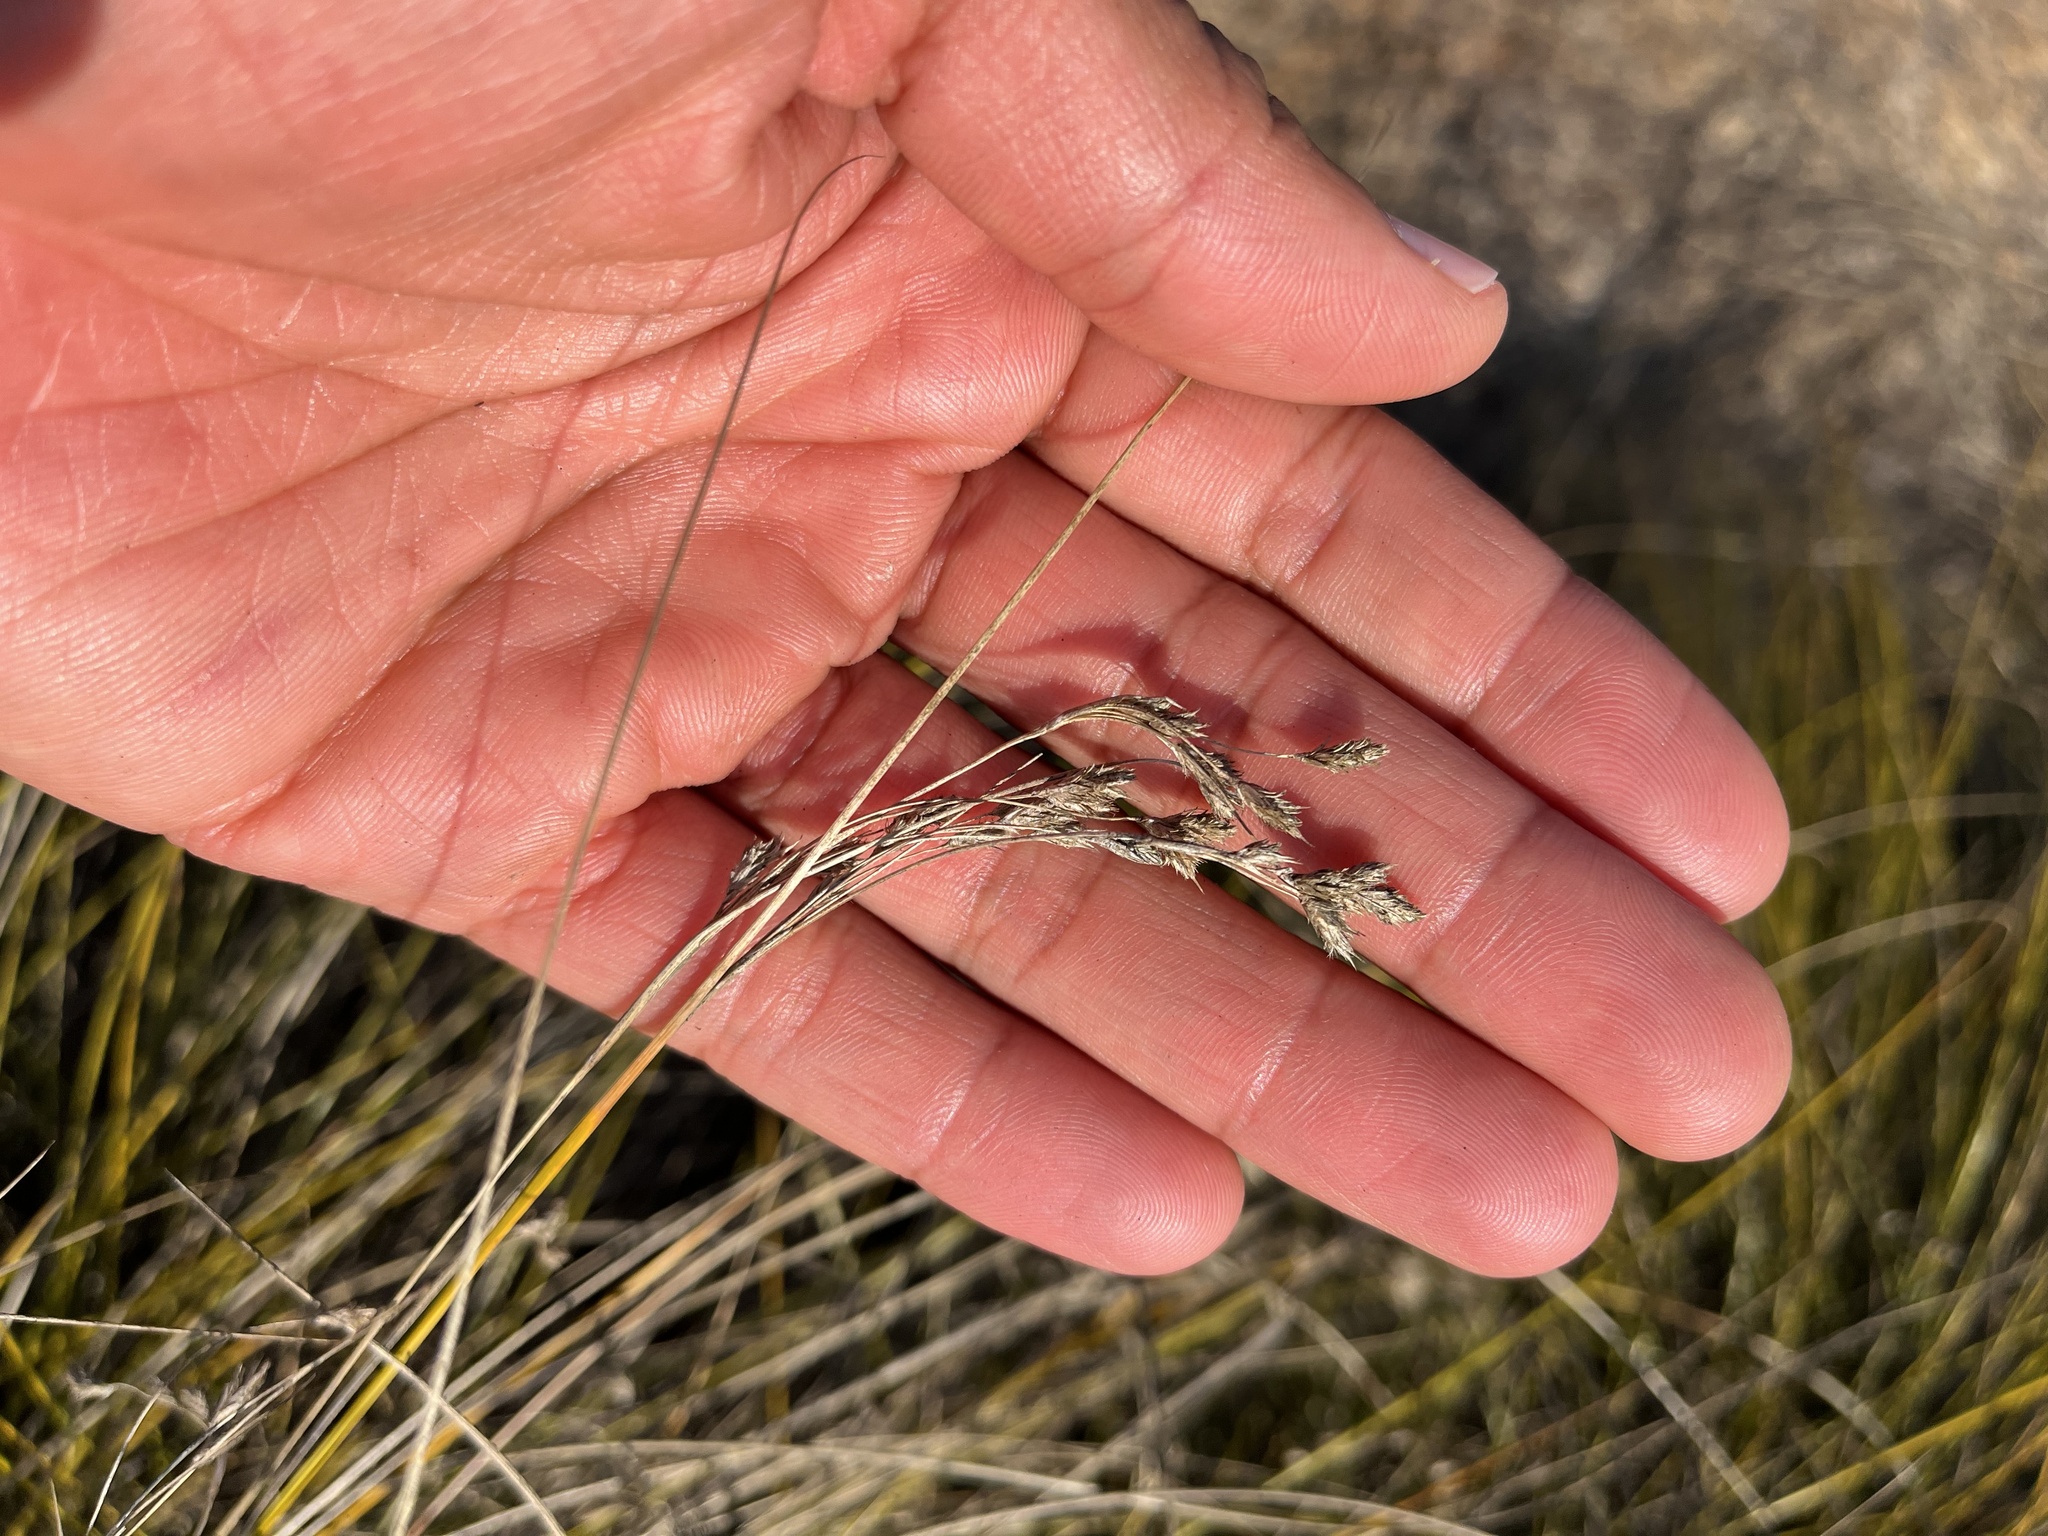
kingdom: Plantae
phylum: Tracheophyta
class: Liliopsida
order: Poales
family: Cyperaceae
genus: Coleochloa
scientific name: Coleochloa setifera
